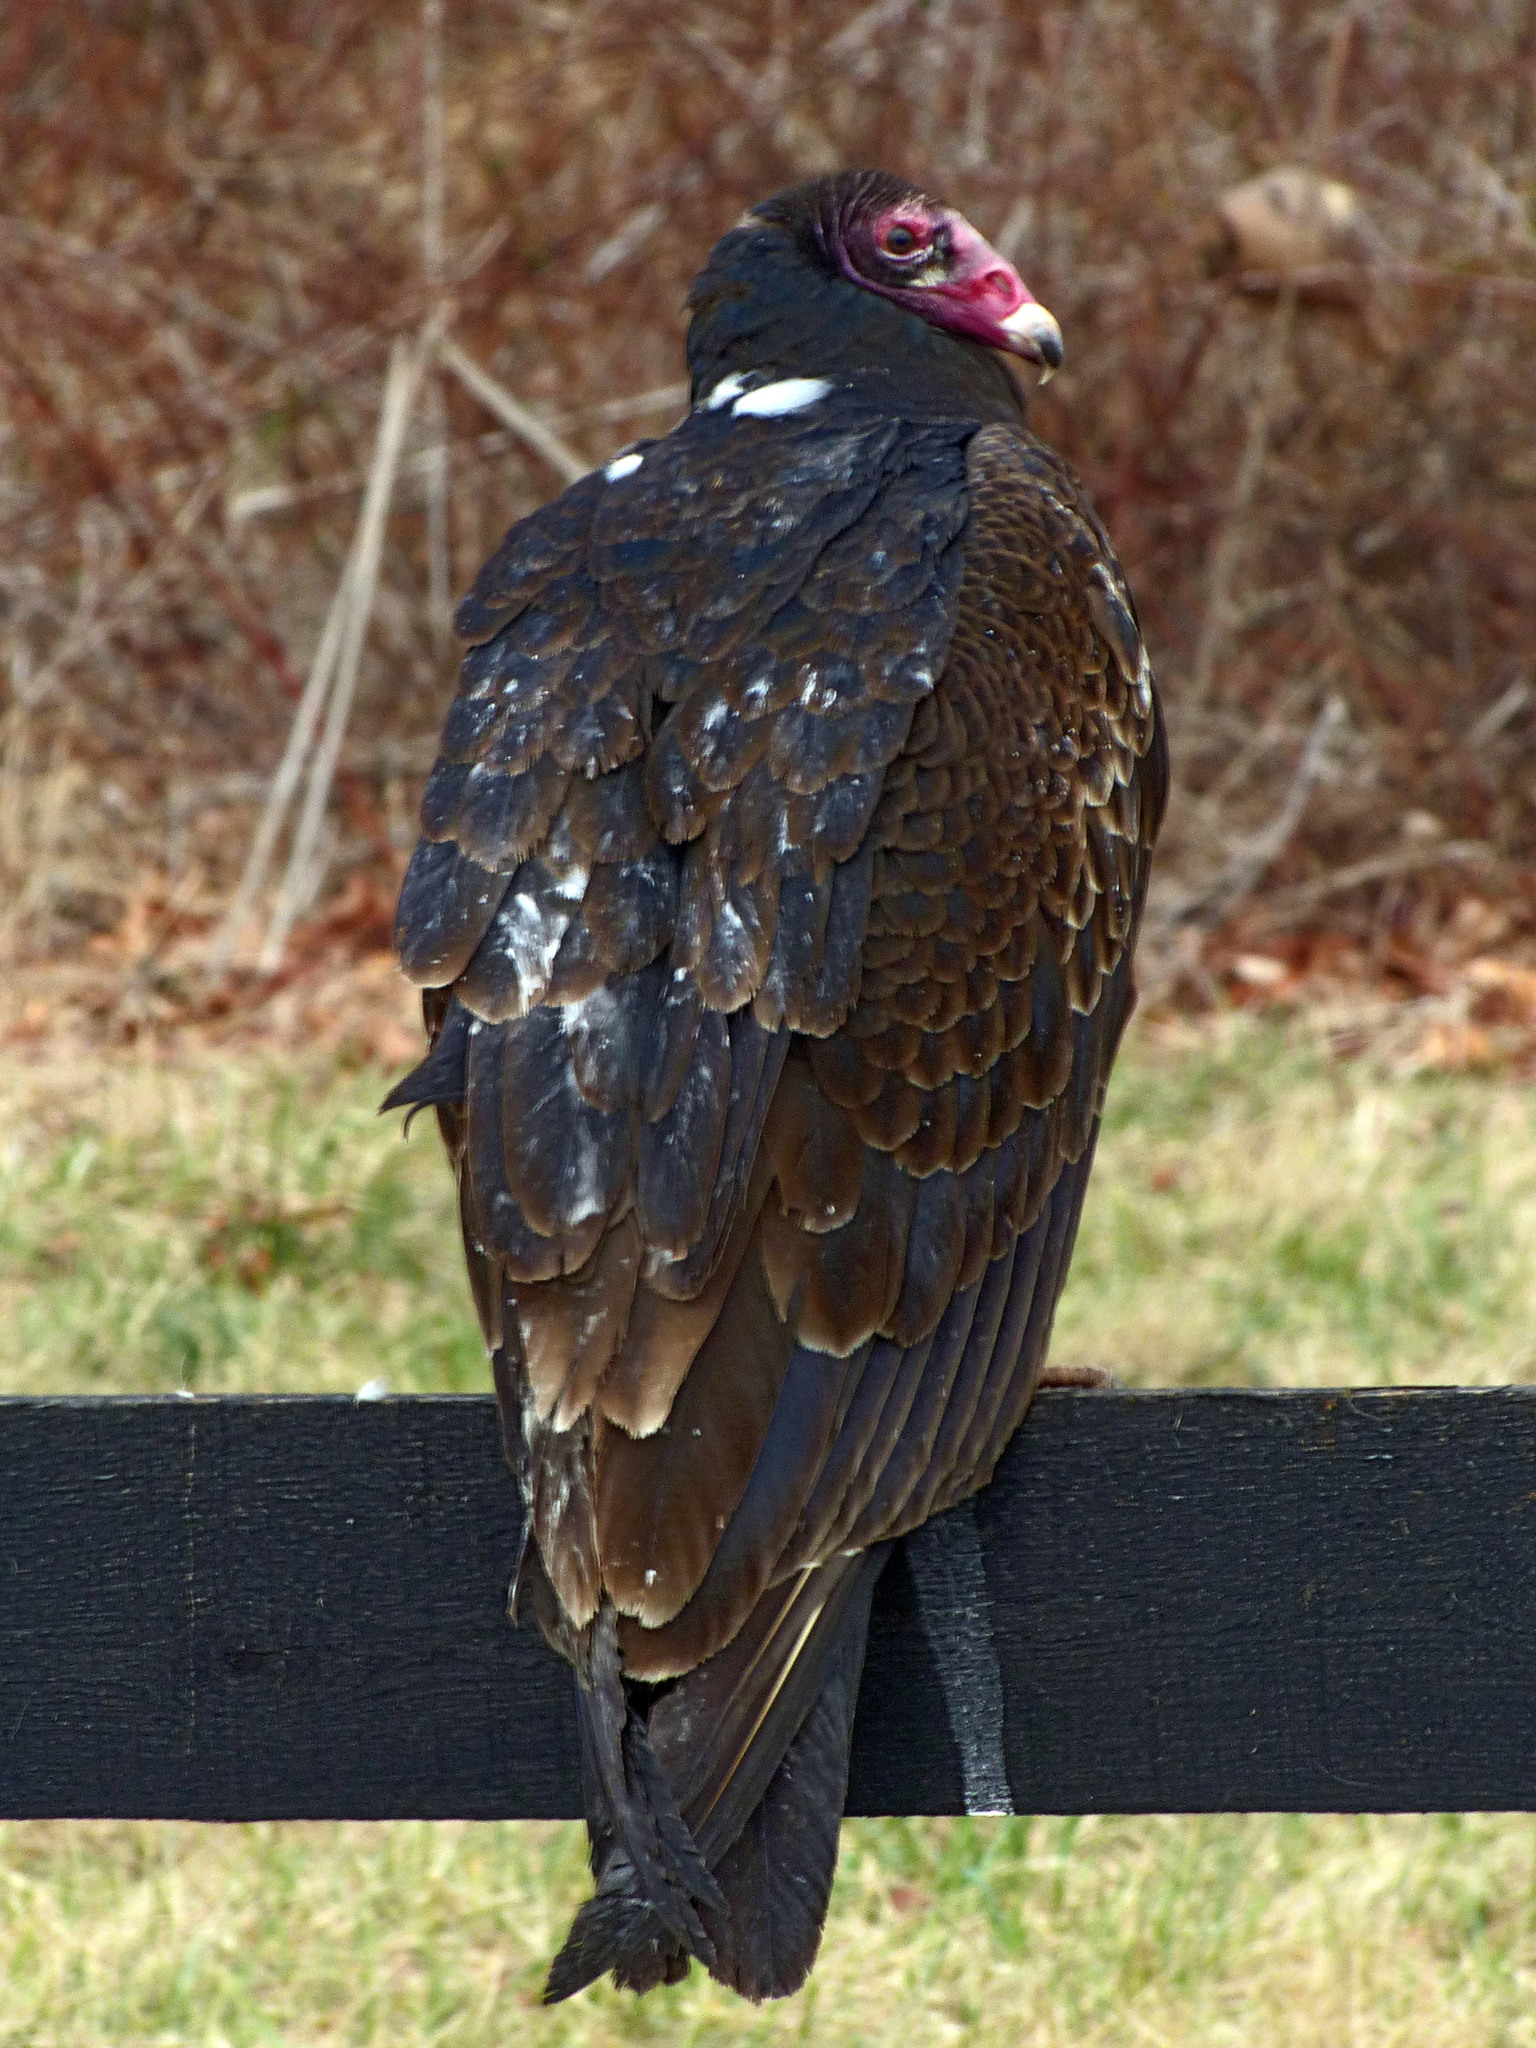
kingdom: Animalia
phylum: Chordata
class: Aves
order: Accipitriformes
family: Cathartidae
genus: Cathartes
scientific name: Cathartes aura
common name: Turkey vulture
